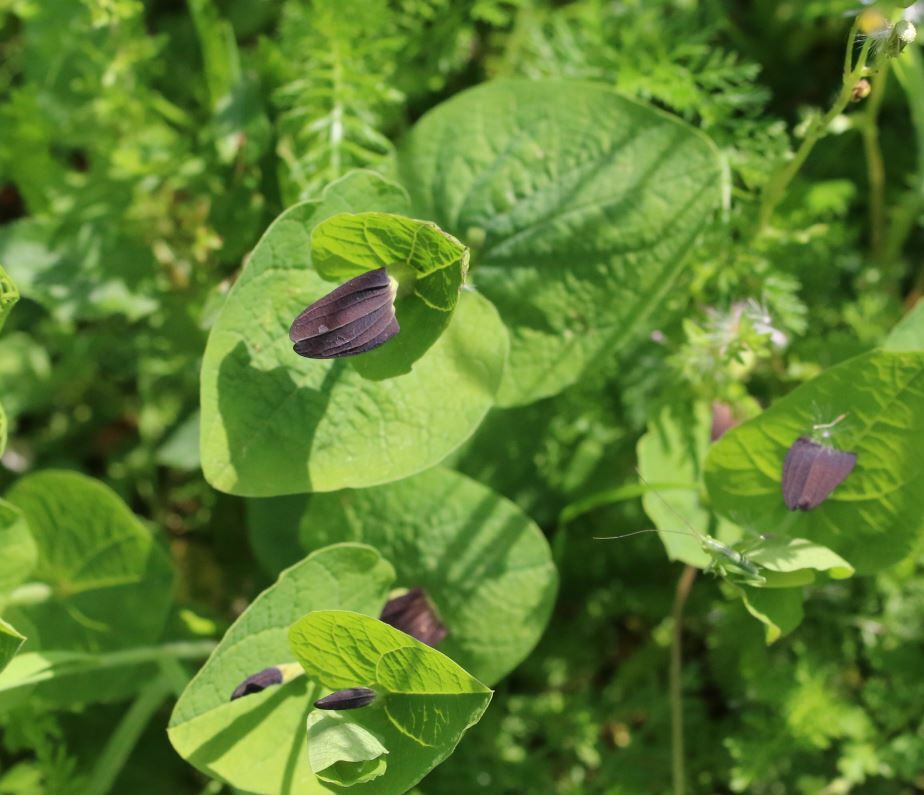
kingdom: Plantae
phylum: Tracheophyta
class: Magnoliopsida
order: Piperales
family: Aristolochiaceae
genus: Aristolochia
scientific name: Aristolochia rotunda
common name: Smearwort
